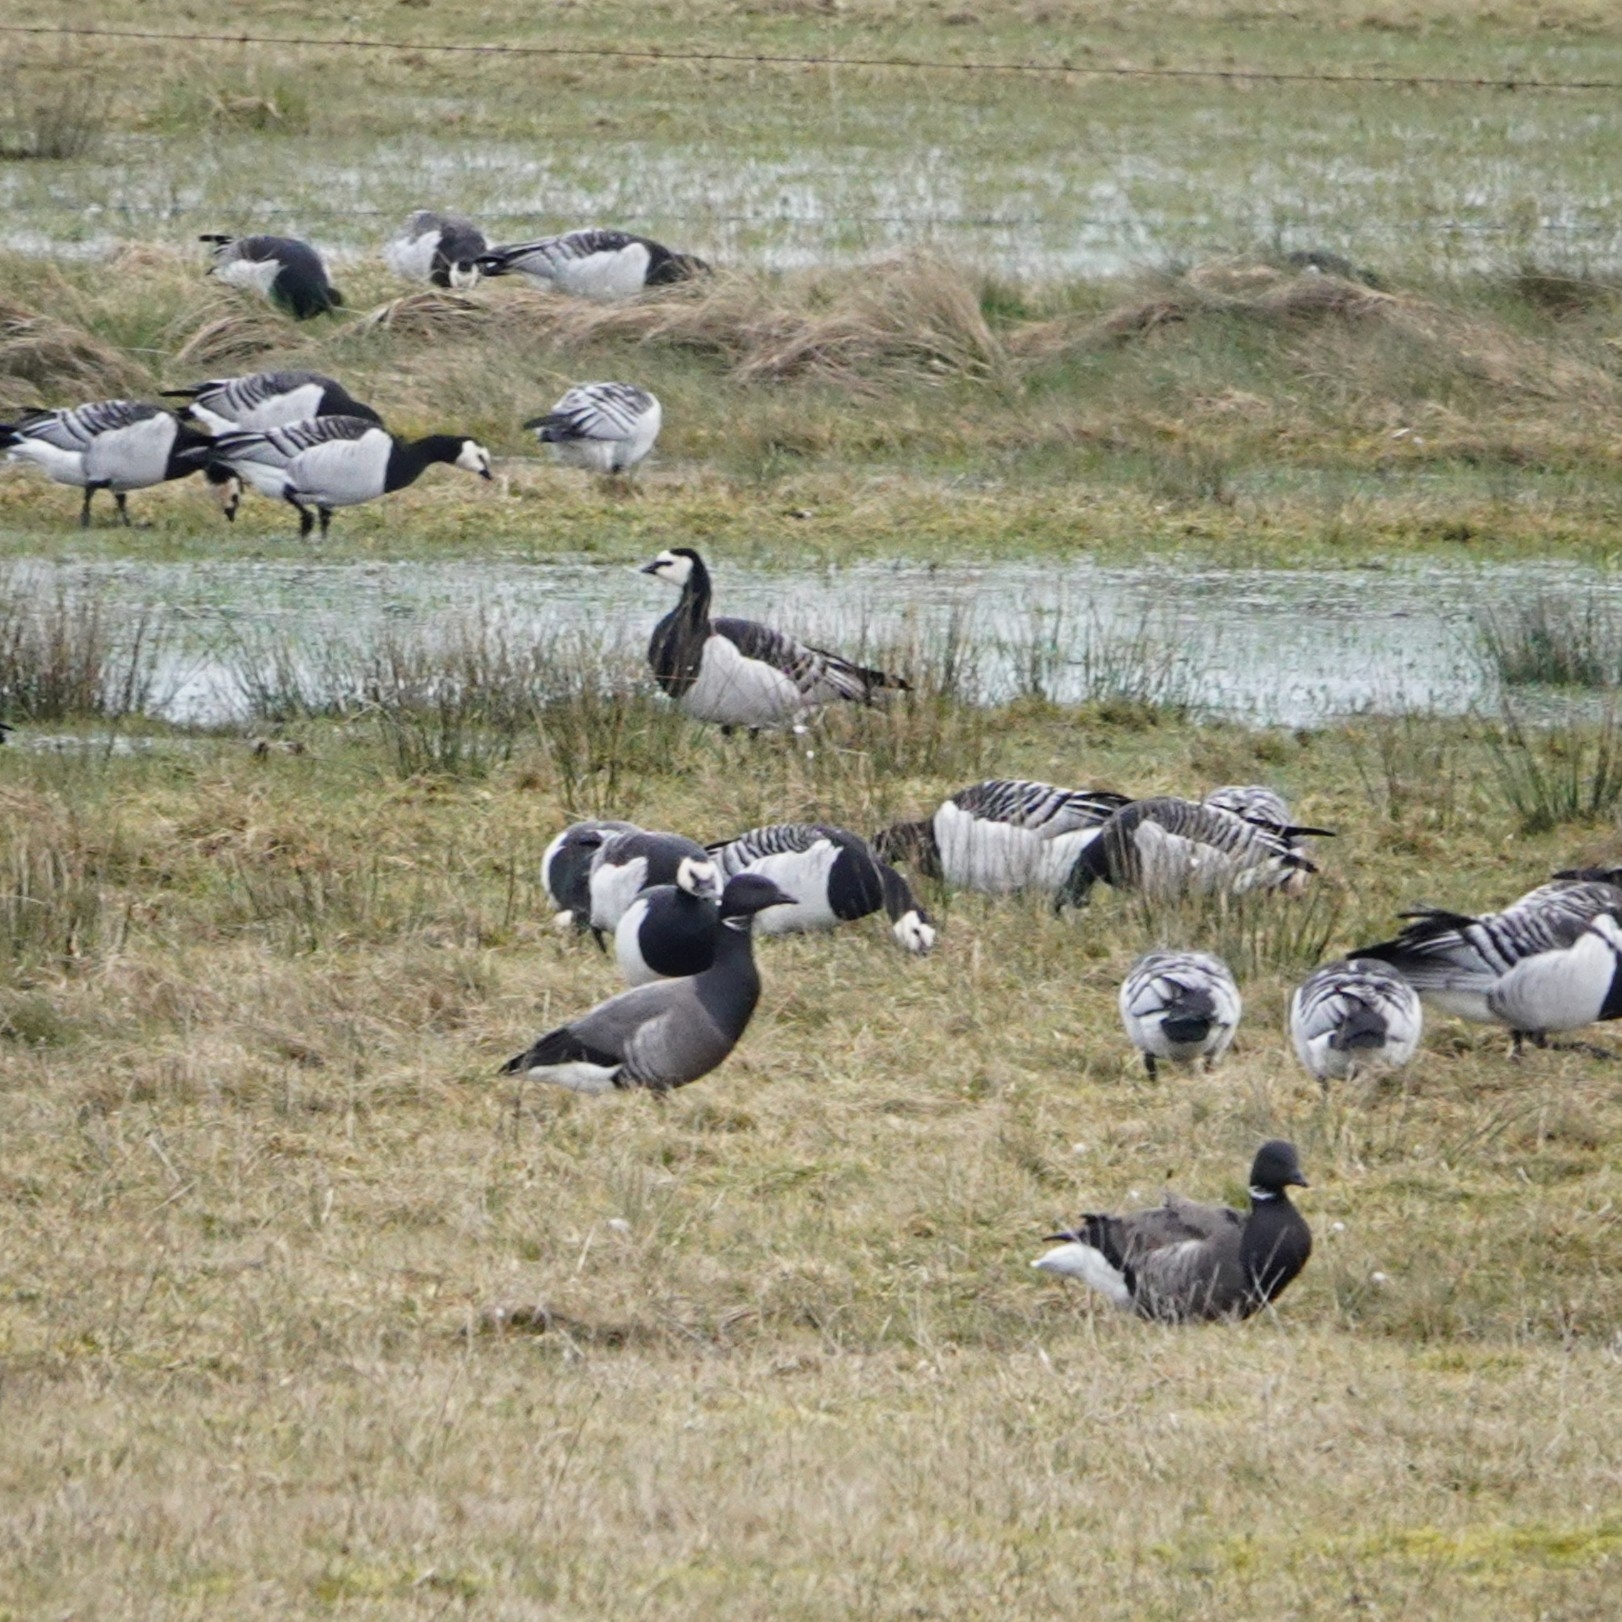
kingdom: Animalia
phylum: Chordata
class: Aves
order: Anseriformes
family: Anatidae
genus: Branta
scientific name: Branta bernicla
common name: Brant goose
